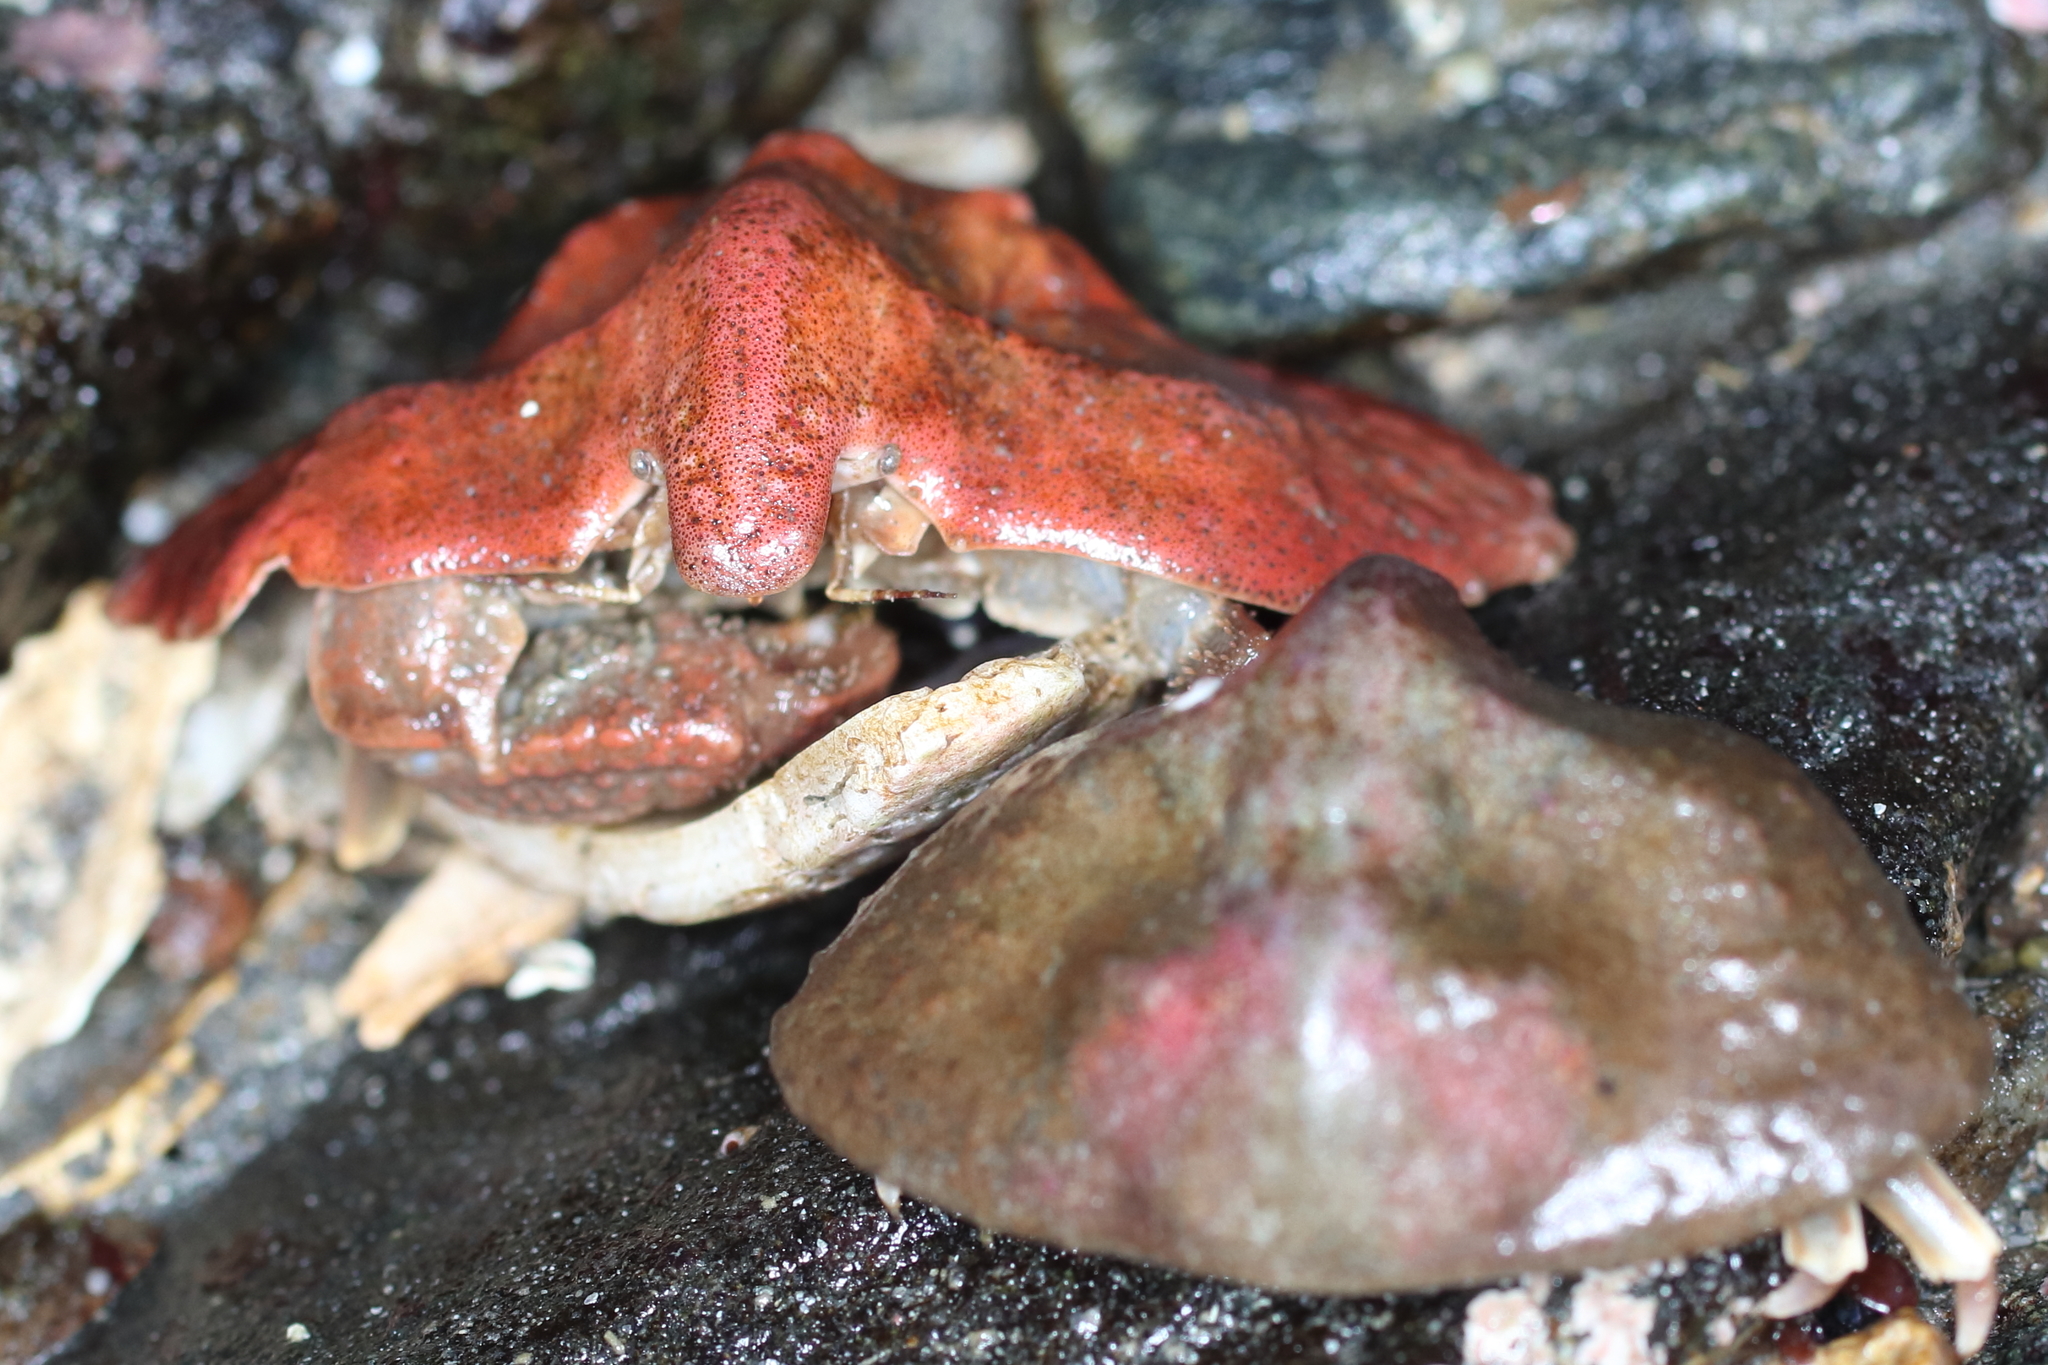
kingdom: Animalia
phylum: Arthropoda
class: Malacostraca
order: Decapoda
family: Lithodidae
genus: Cryptolithodes
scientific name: Cryptolithodes typicus
